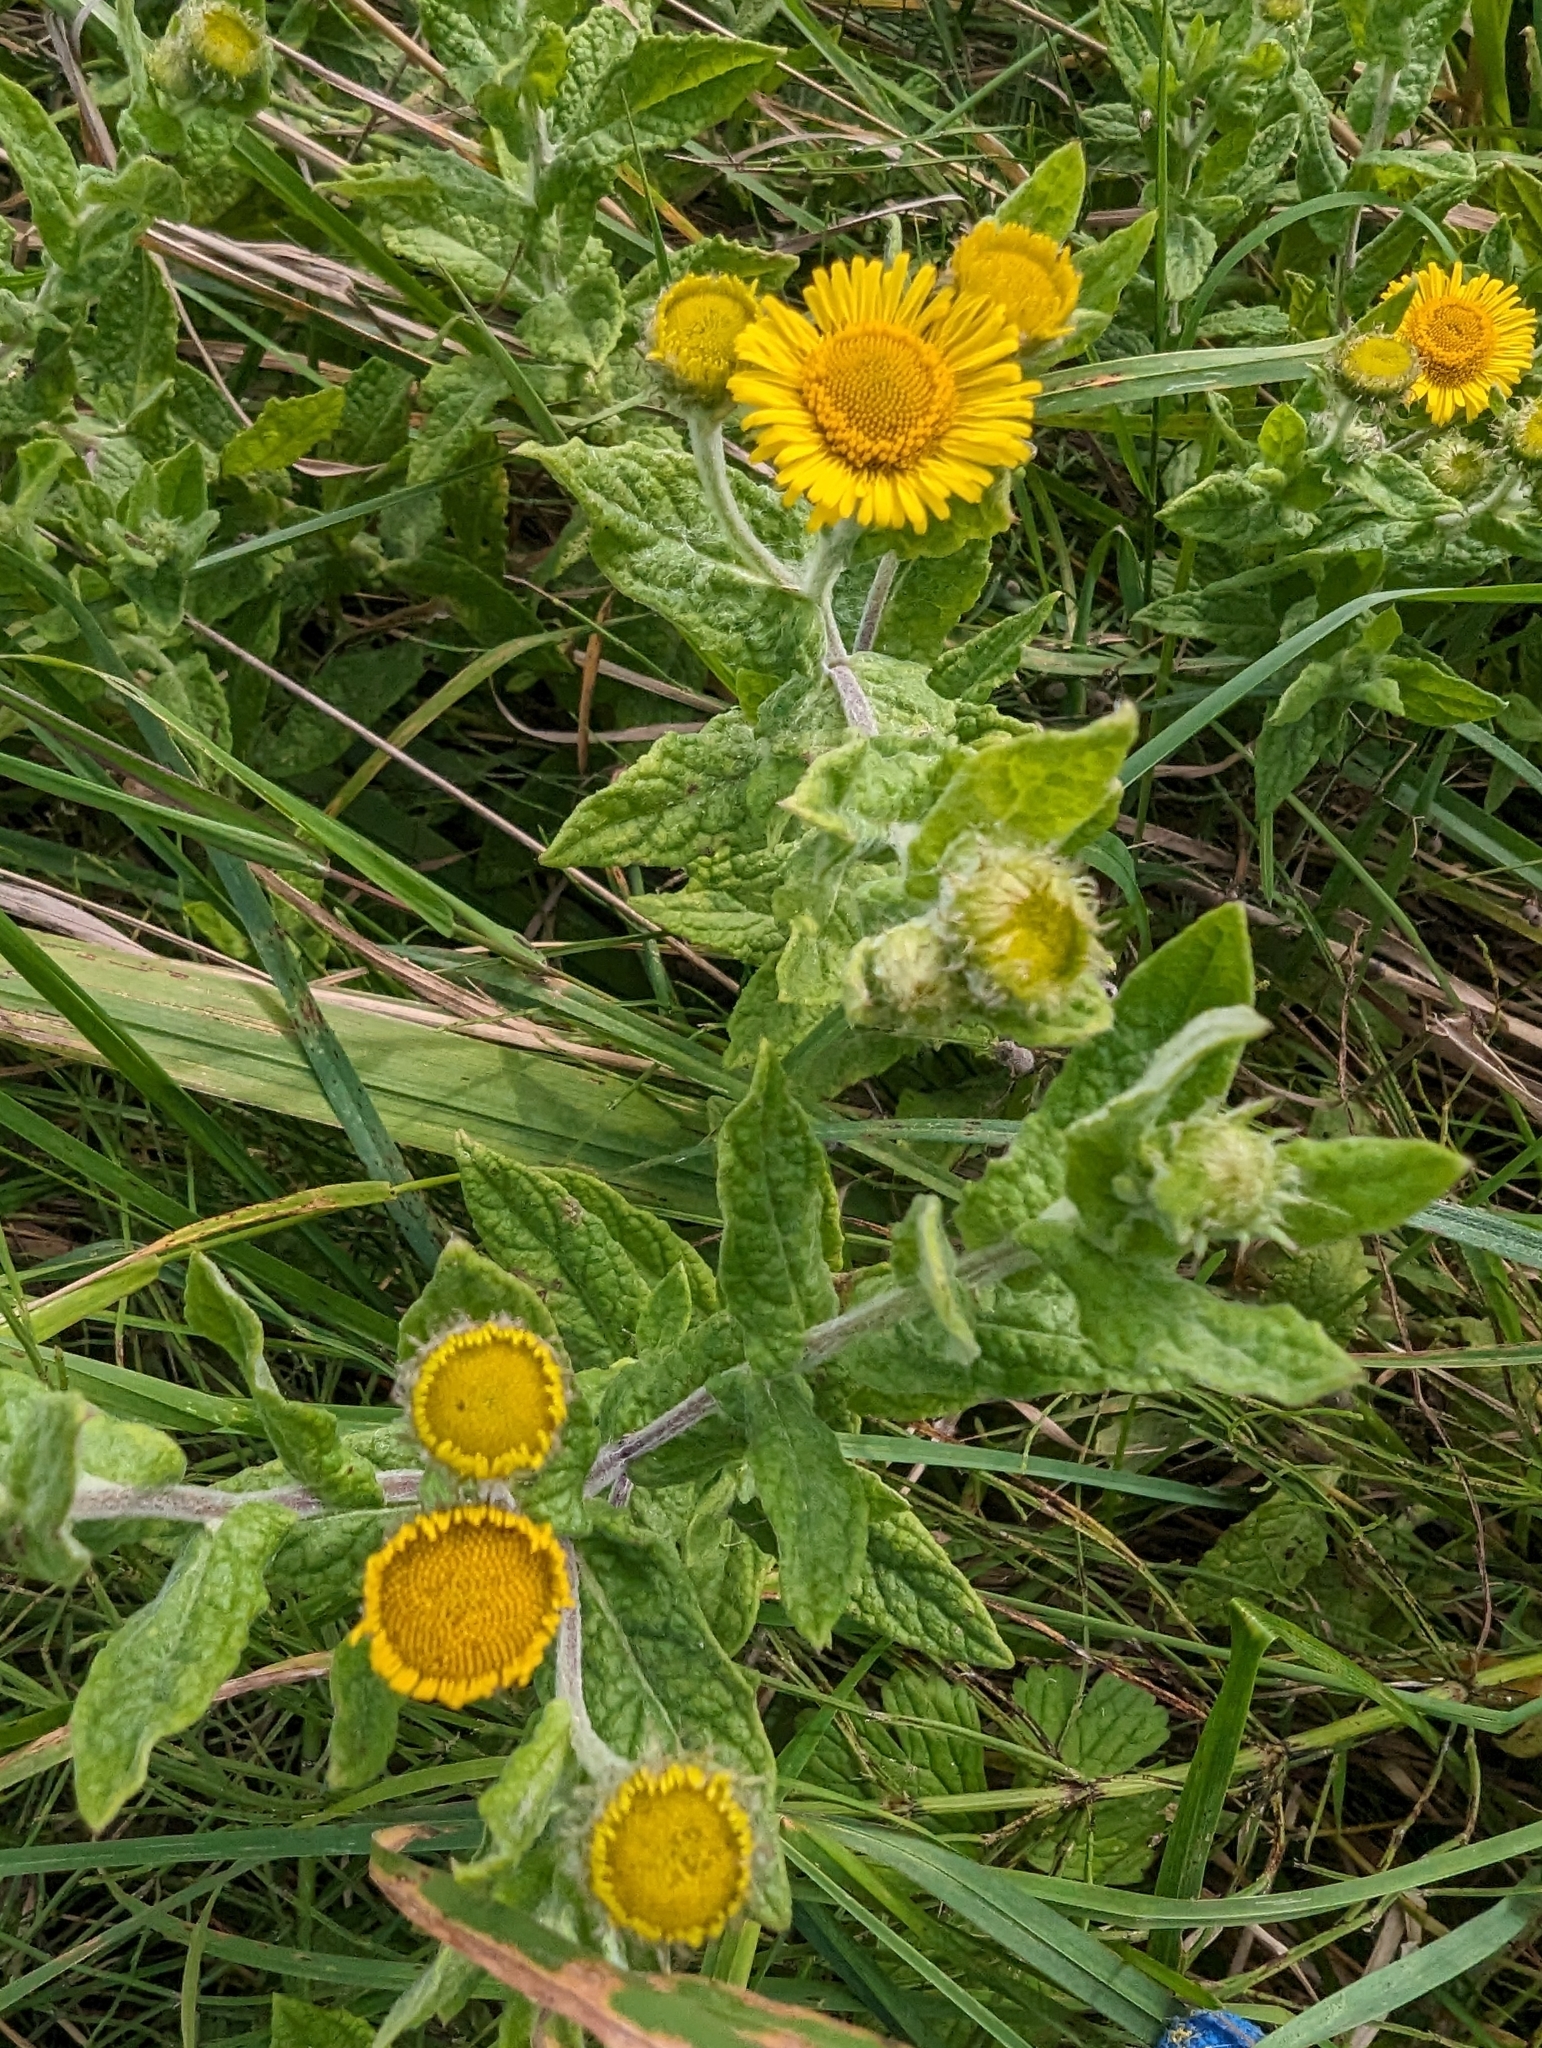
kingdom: Plantae
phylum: Tracheophyta
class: Magnoliopsida
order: Asterales
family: Asteraceae
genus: Pulicaria
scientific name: Pulicaria dysenterica
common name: Common fleabane
